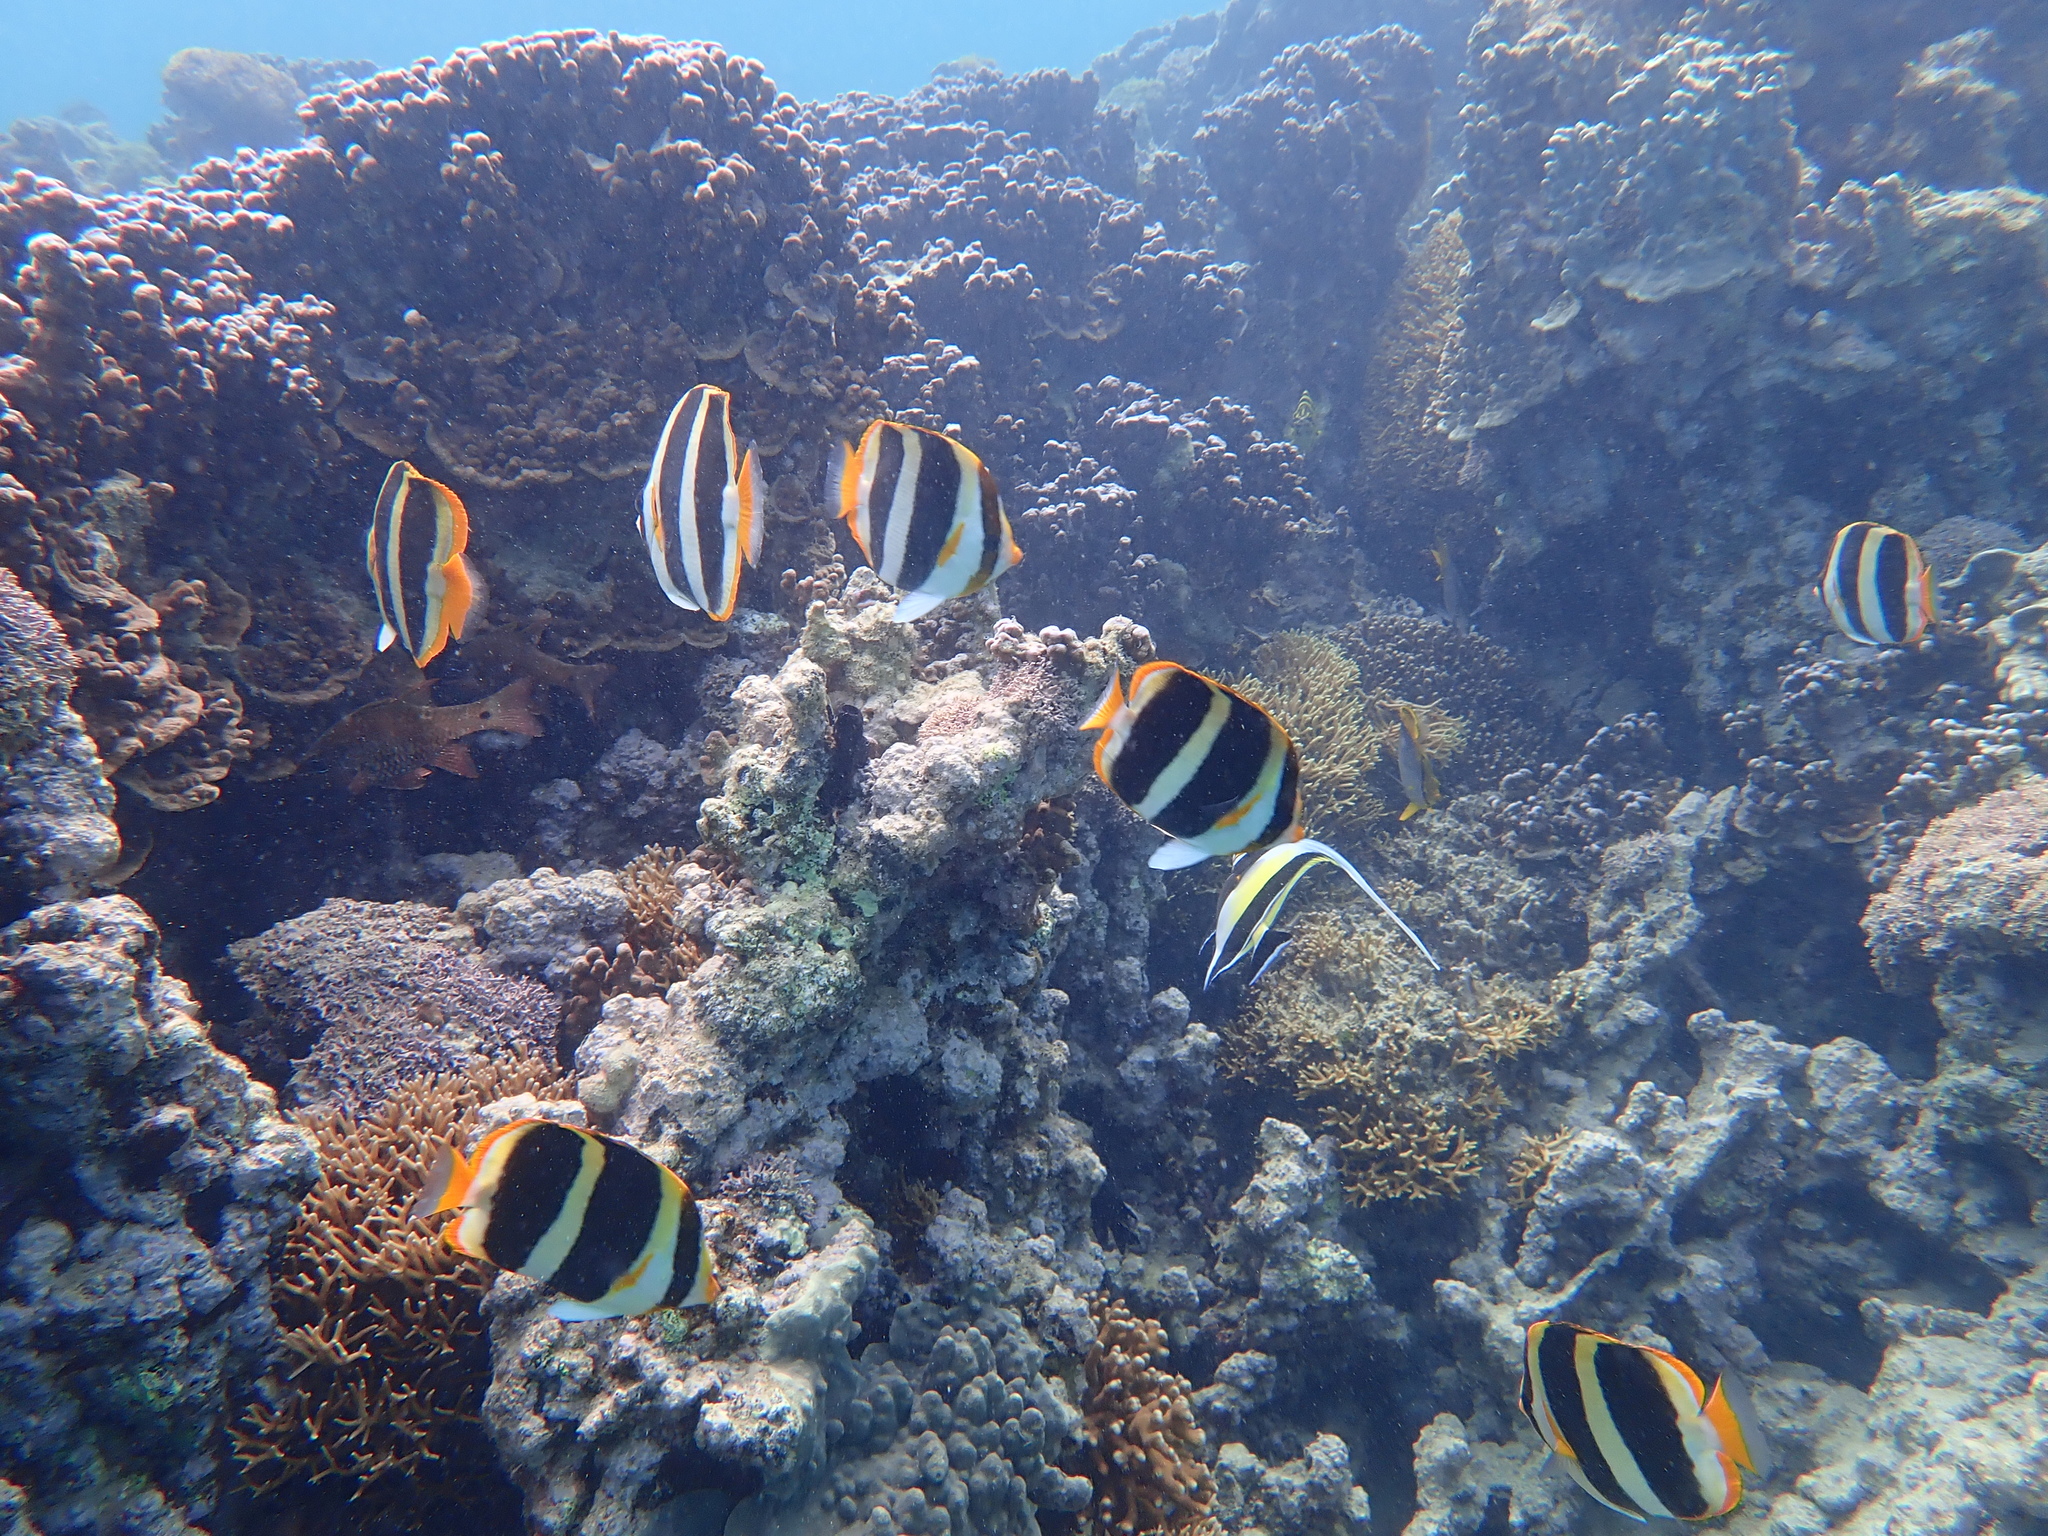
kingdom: Animalia
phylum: Chordata
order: Perciformes
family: Zanclidae
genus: Zanclus
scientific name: Zanclus cornutus
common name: Moorish idol
